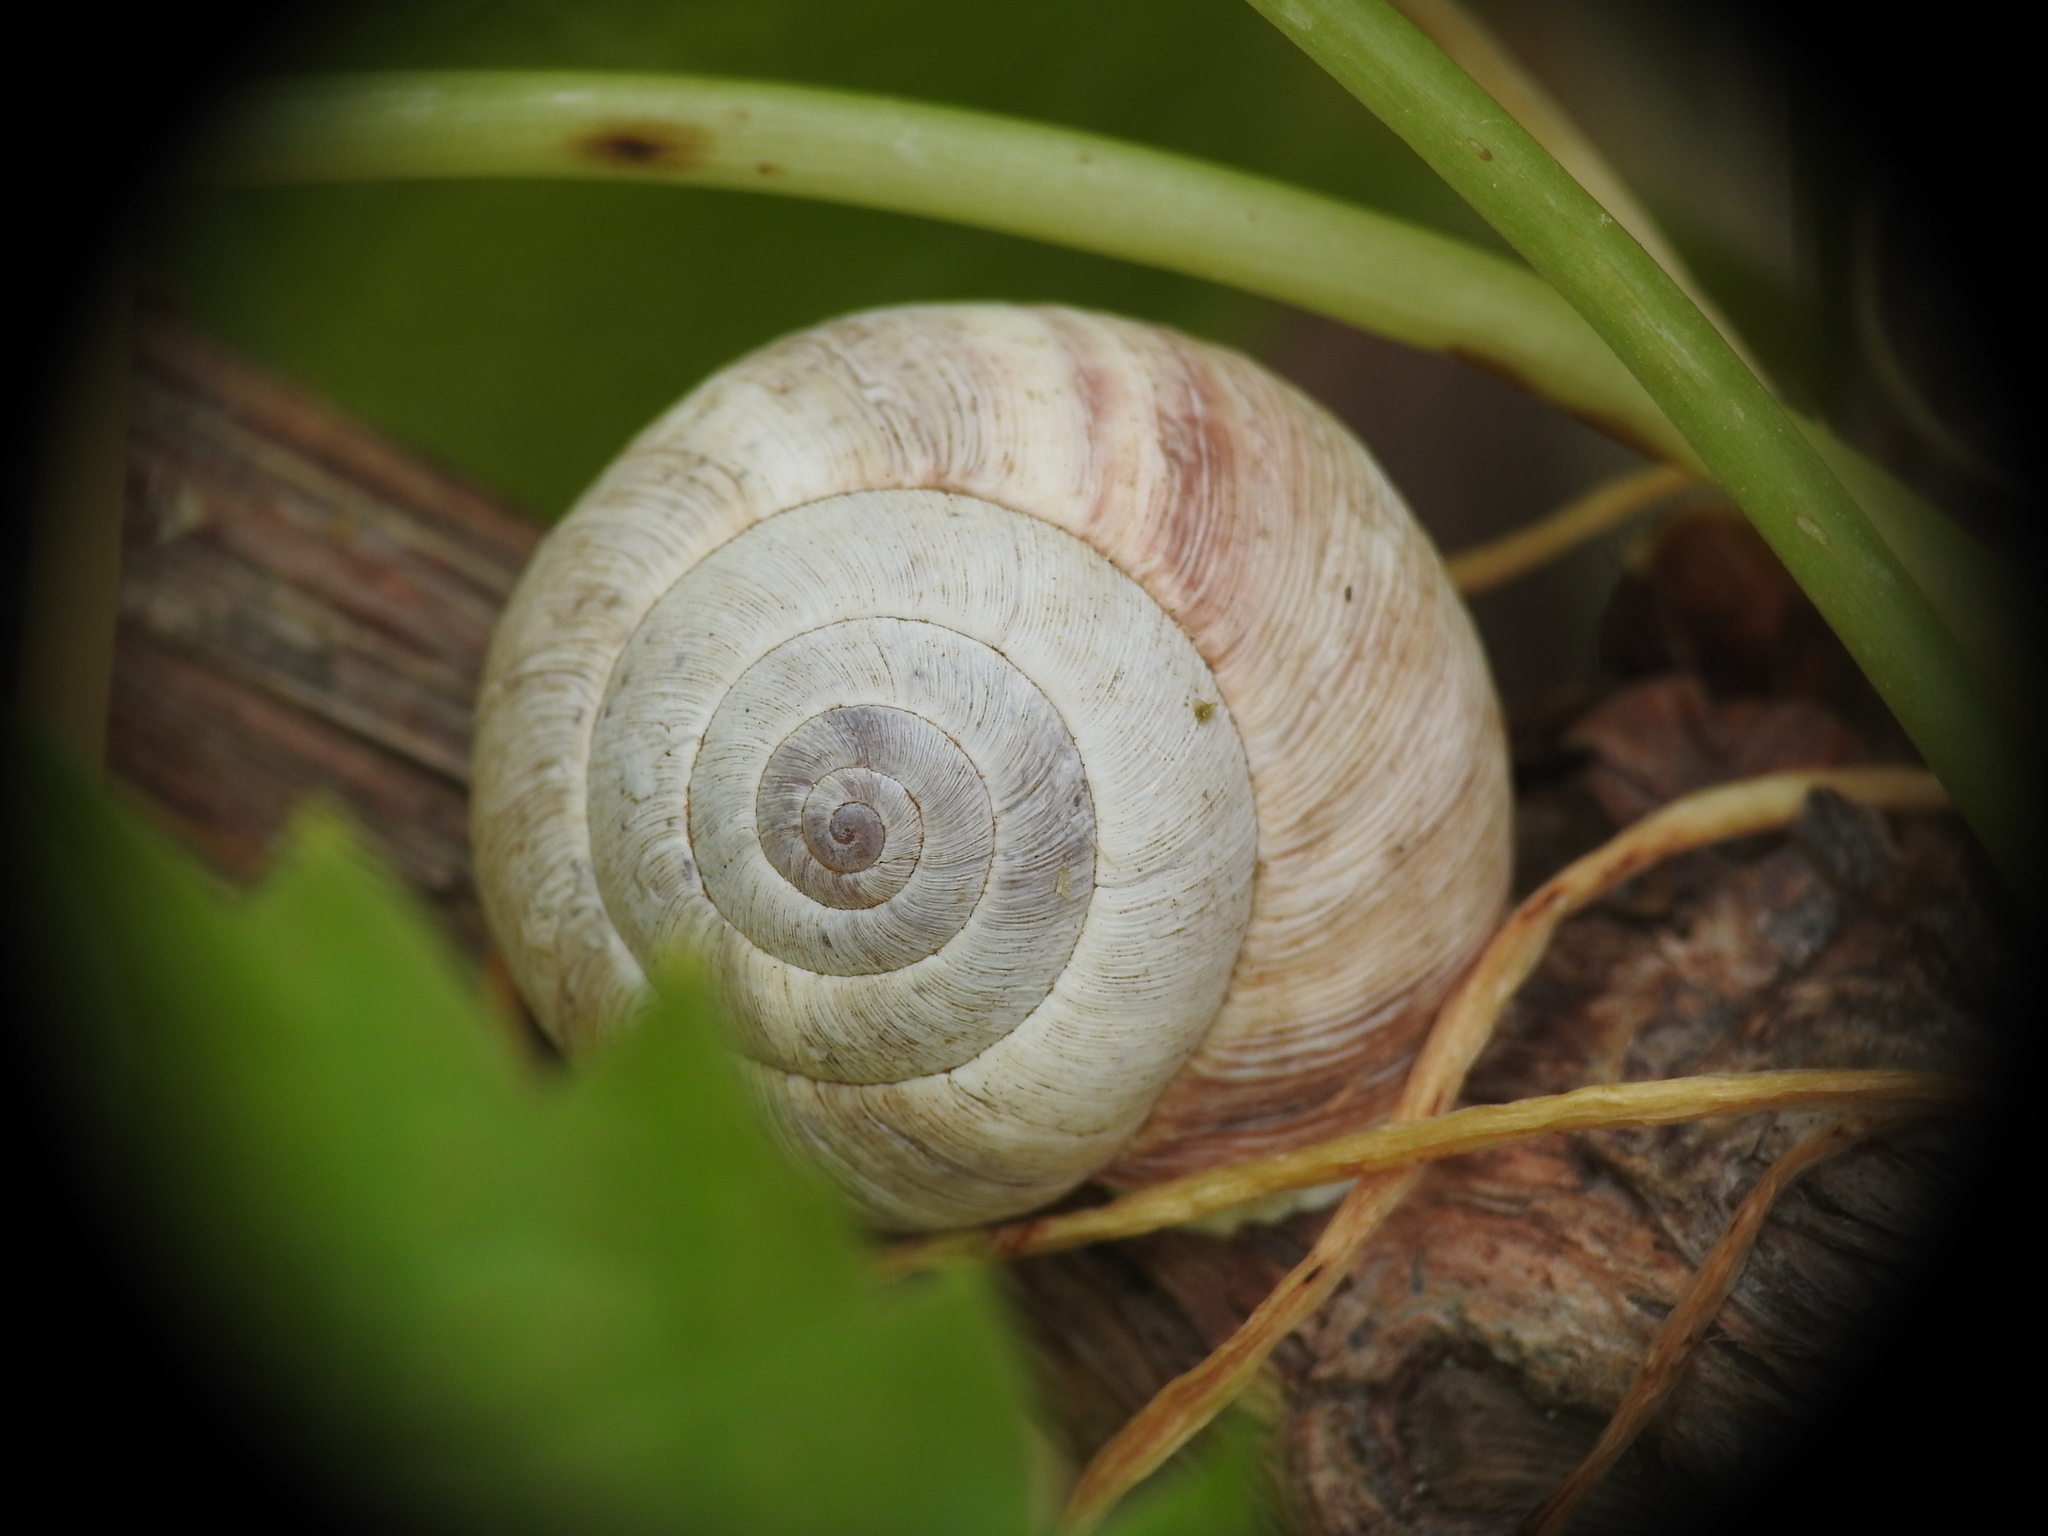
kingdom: Animalia
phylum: Mollusca
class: Gastropoda
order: Stylommatophora
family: Geomitridae
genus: Cernuella
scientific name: Cernuella virgata
